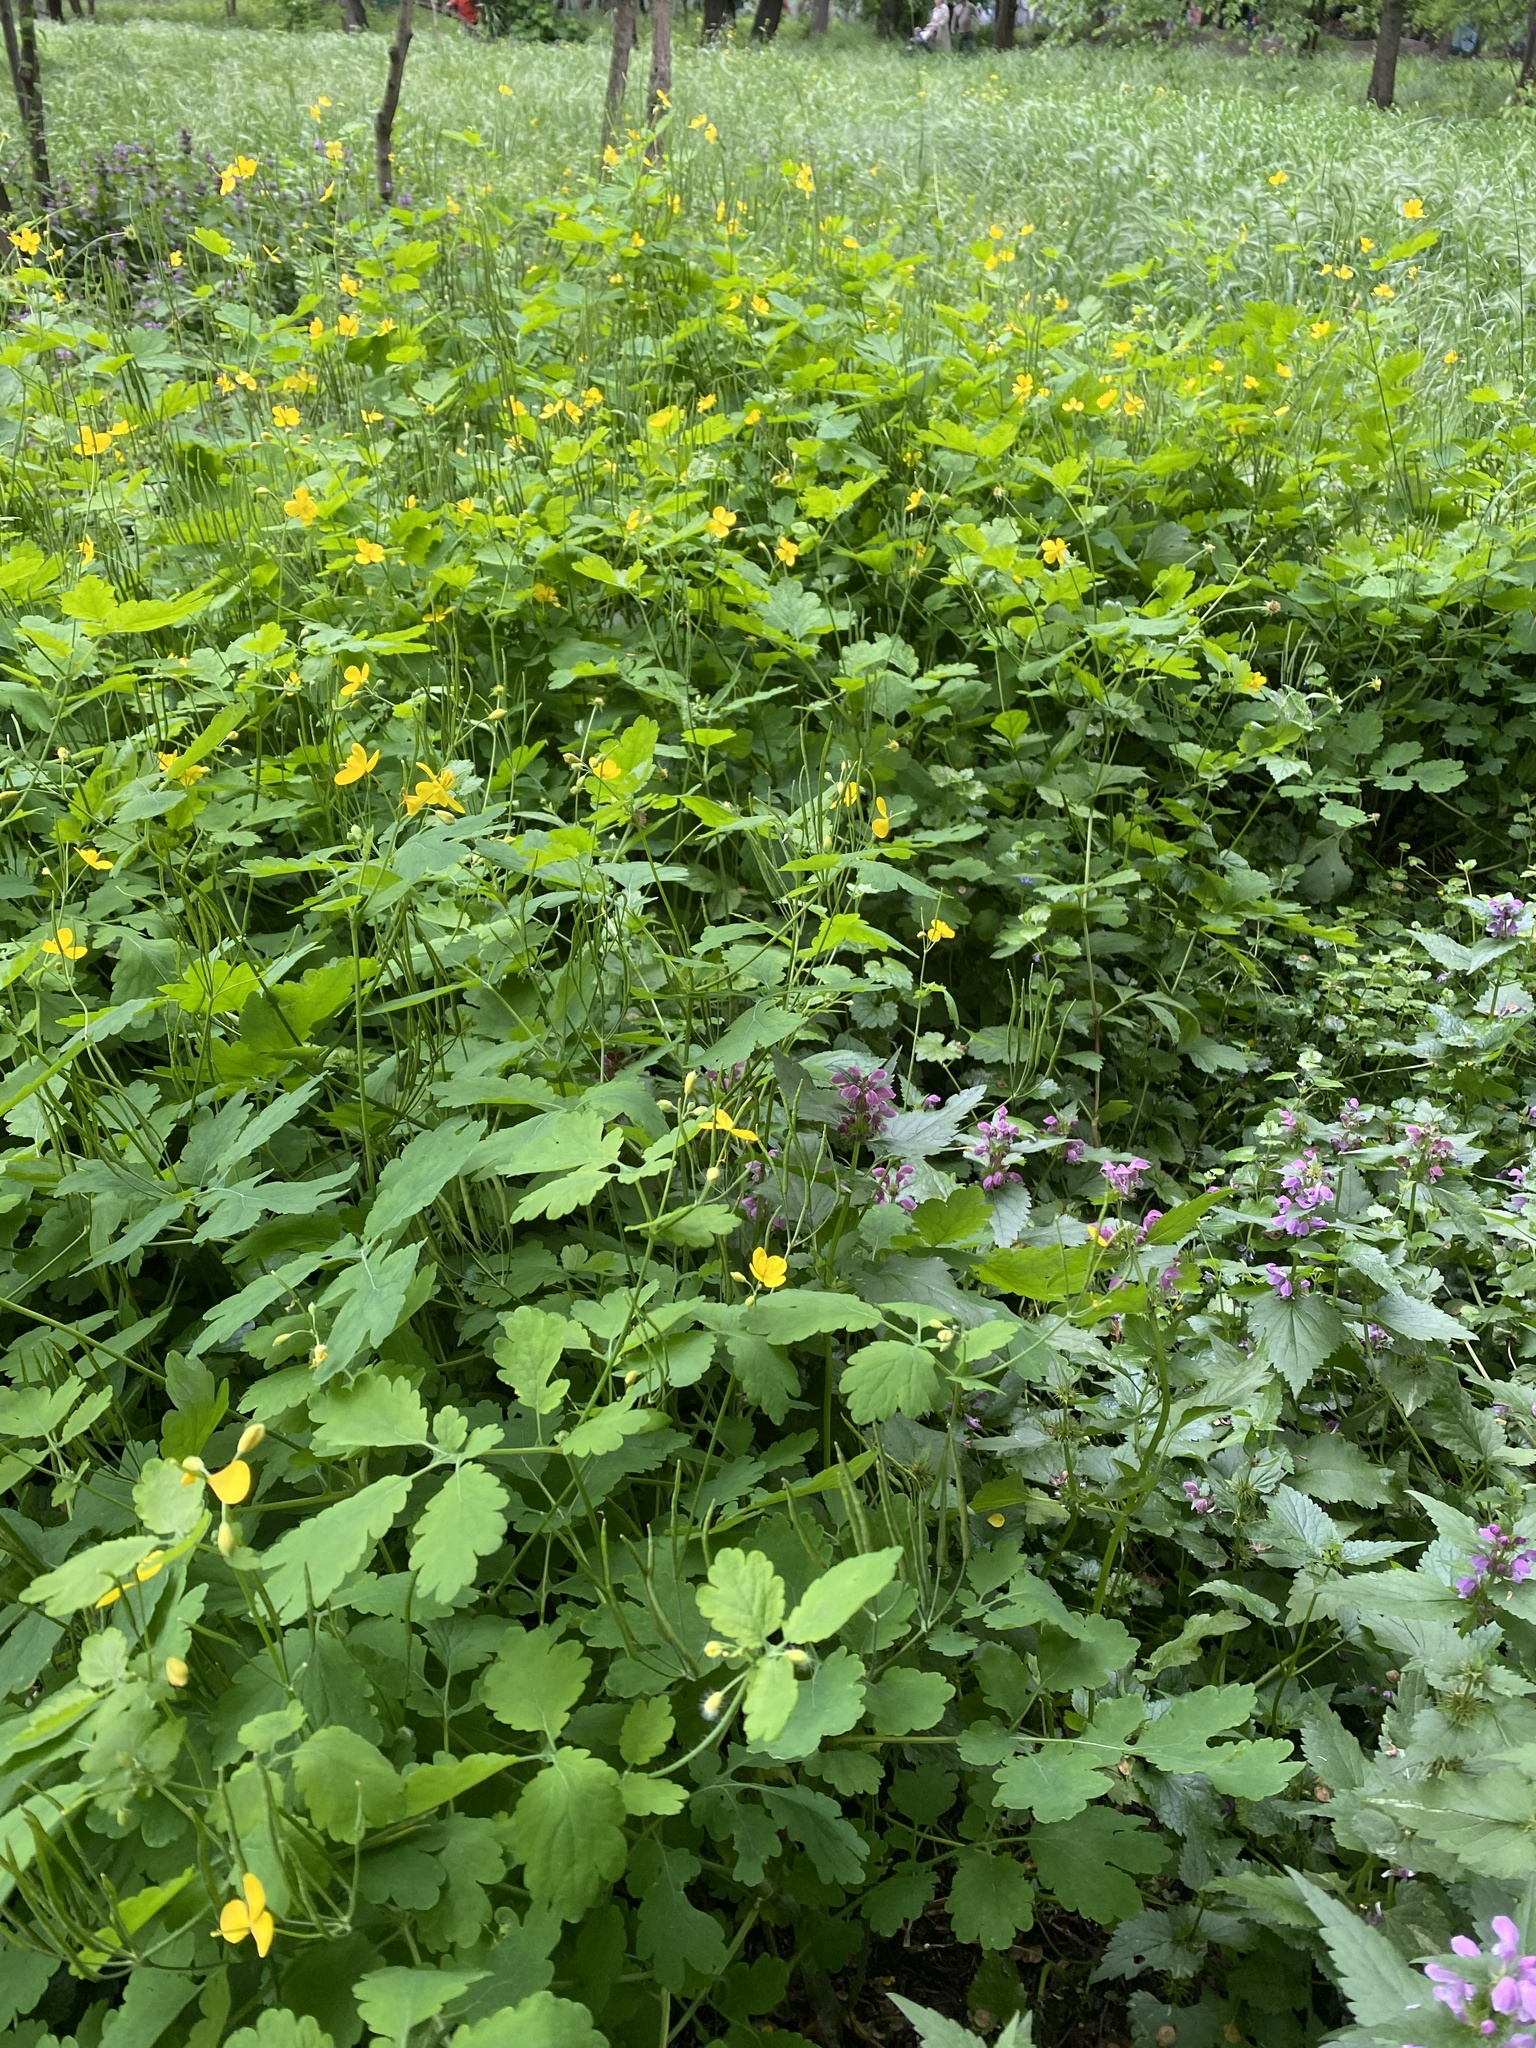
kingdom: Plantae
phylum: Tracheophyta
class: Magnoliopsida
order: Ranunculales
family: Papaveraceae
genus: Chelidonium
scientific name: Chelidonium majus
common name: Greater celandine
